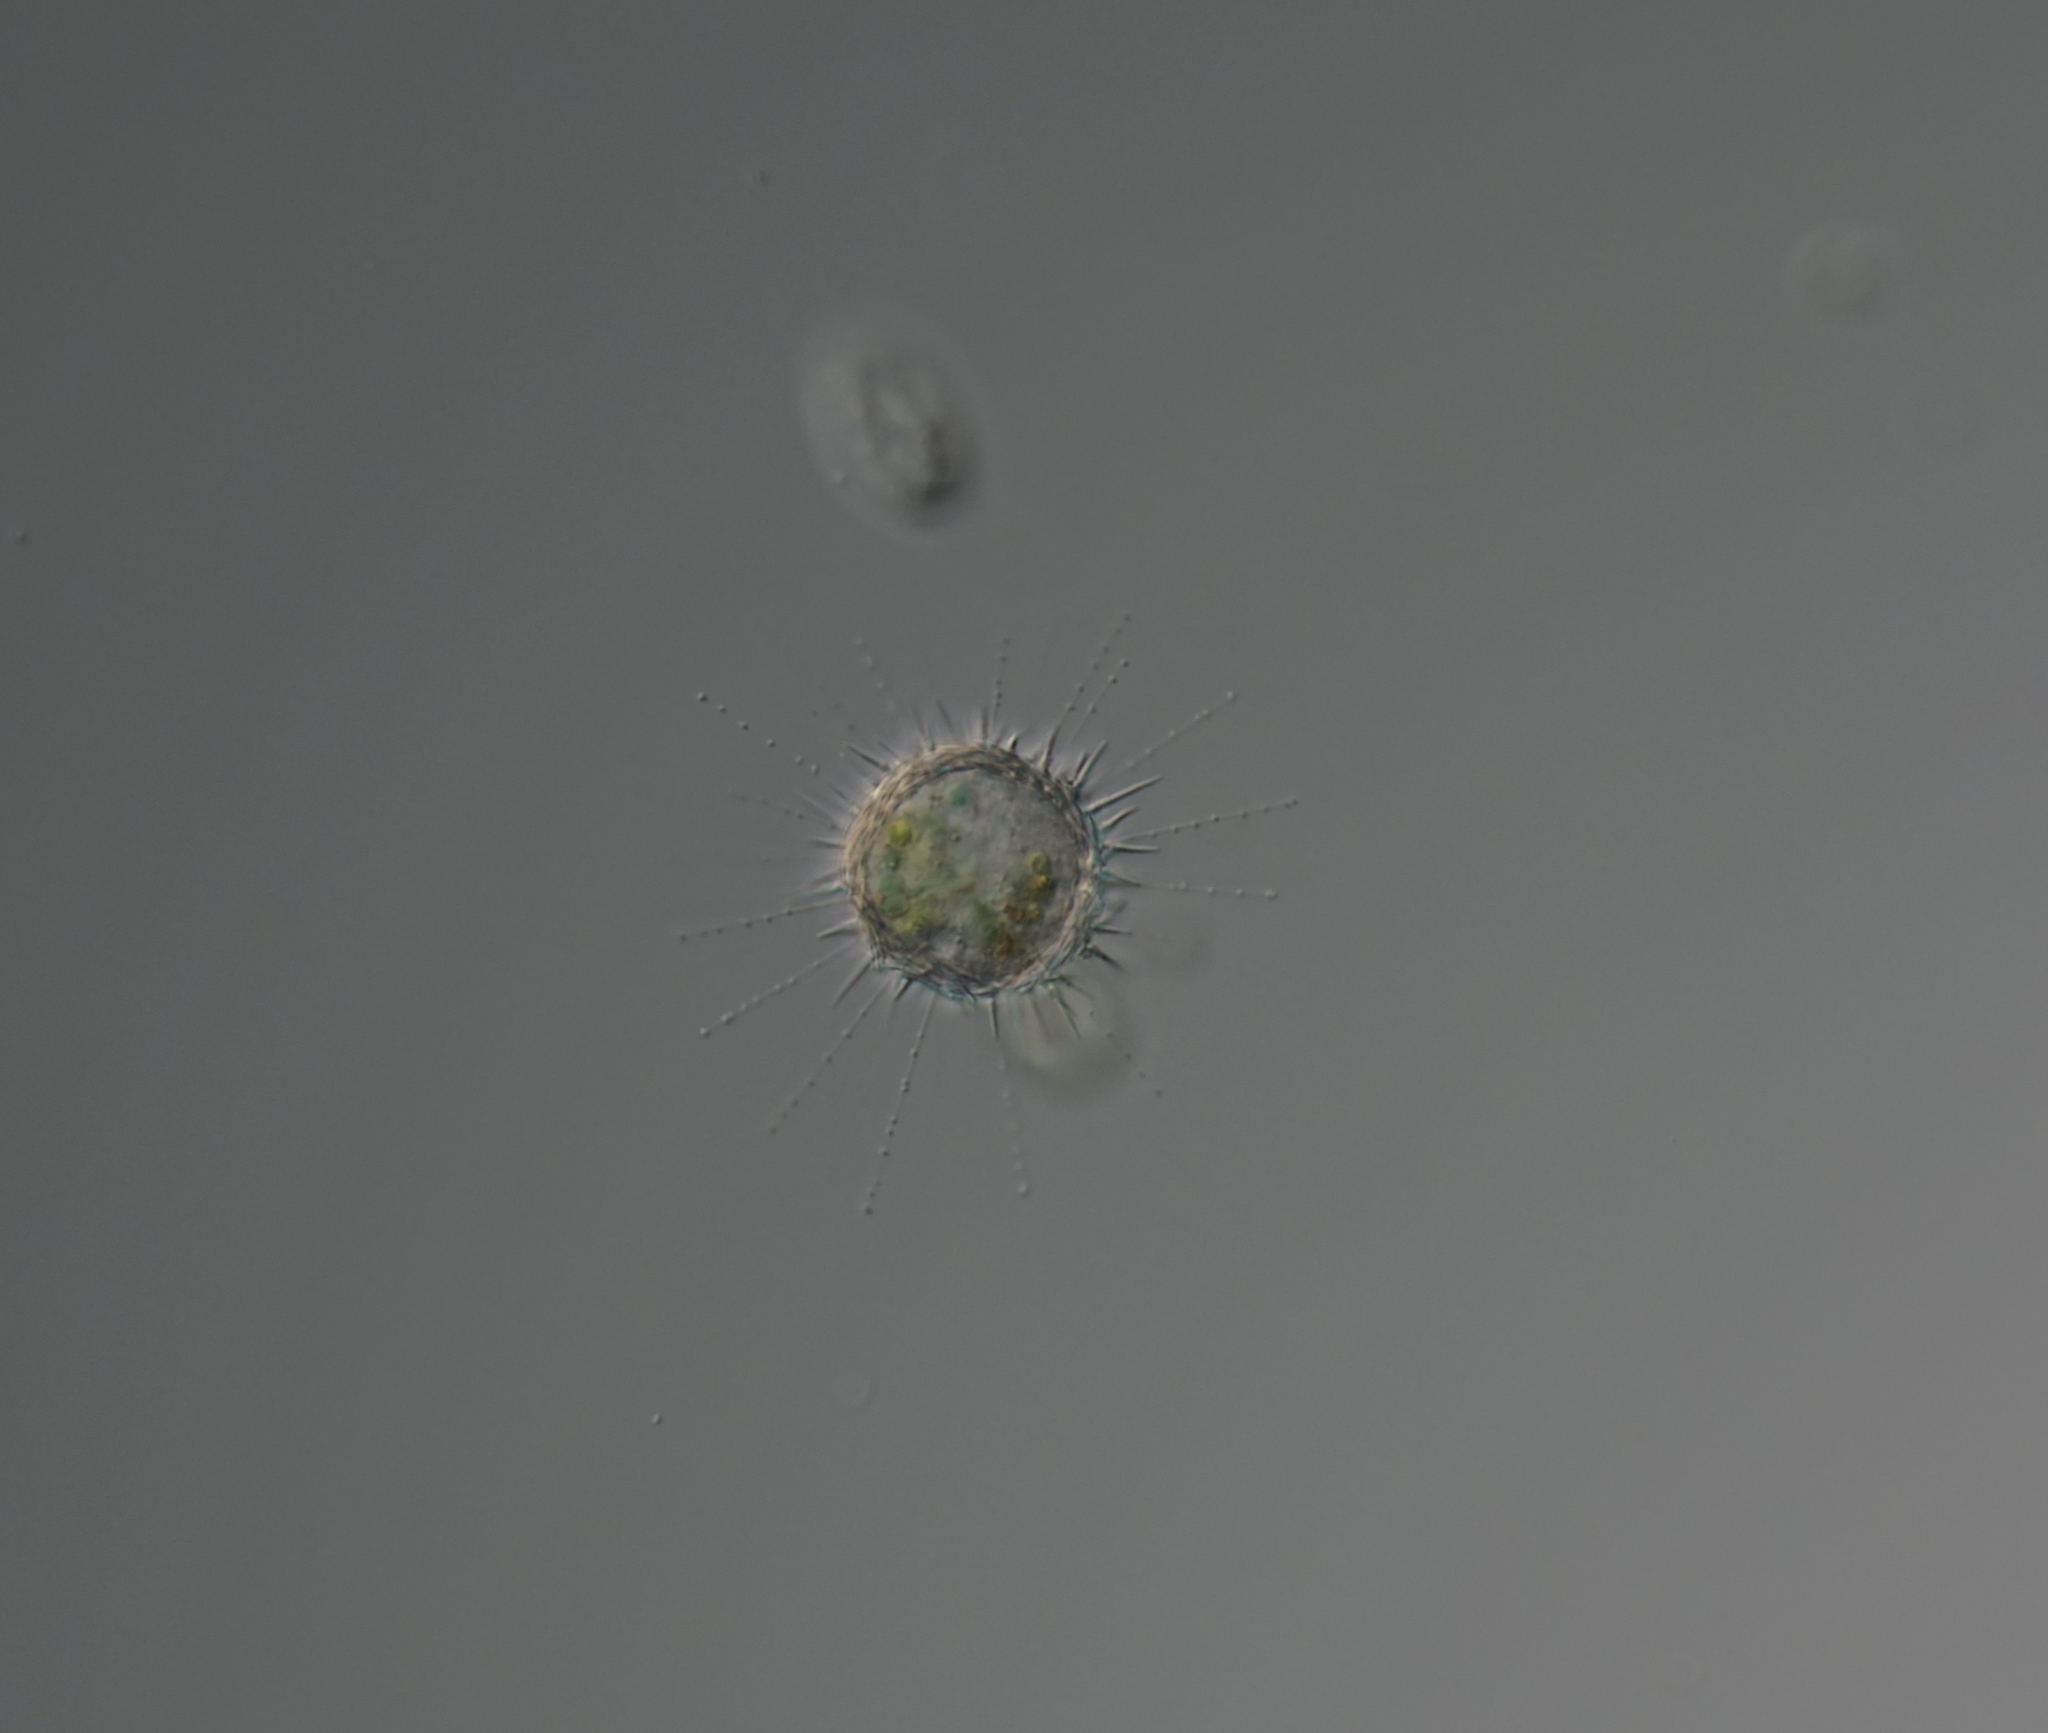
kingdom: Chromista
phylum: Heliozoa
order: Centrohelida
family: Acanthocystidae
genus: Choanocystis
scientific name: Choanocystis aculeata
